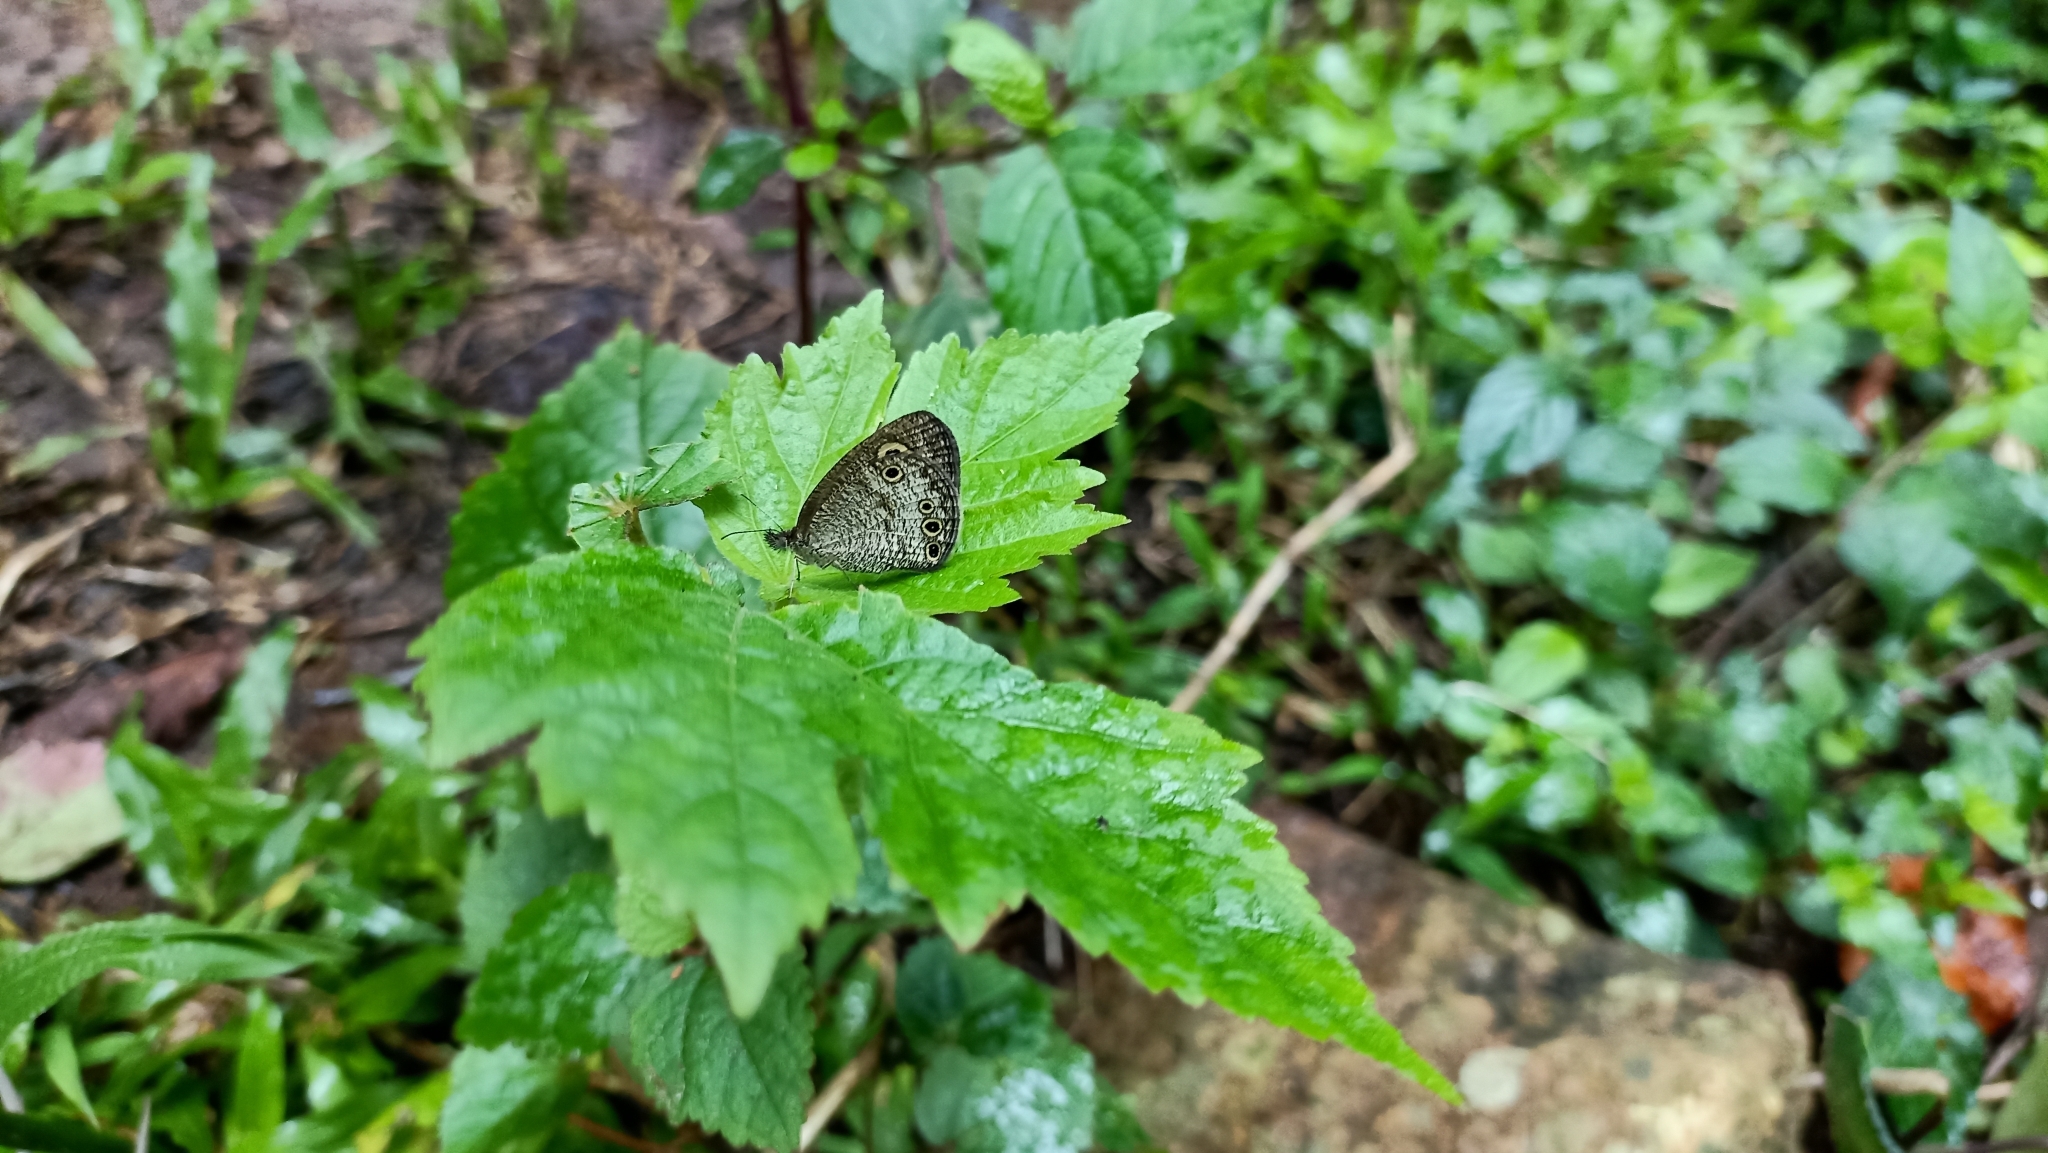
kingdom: Animalia
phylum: Arthropoda
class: Insecta
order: Lepidoptera
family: Nymphalidae
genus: Ypthima
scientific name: Ypthima huebneri
